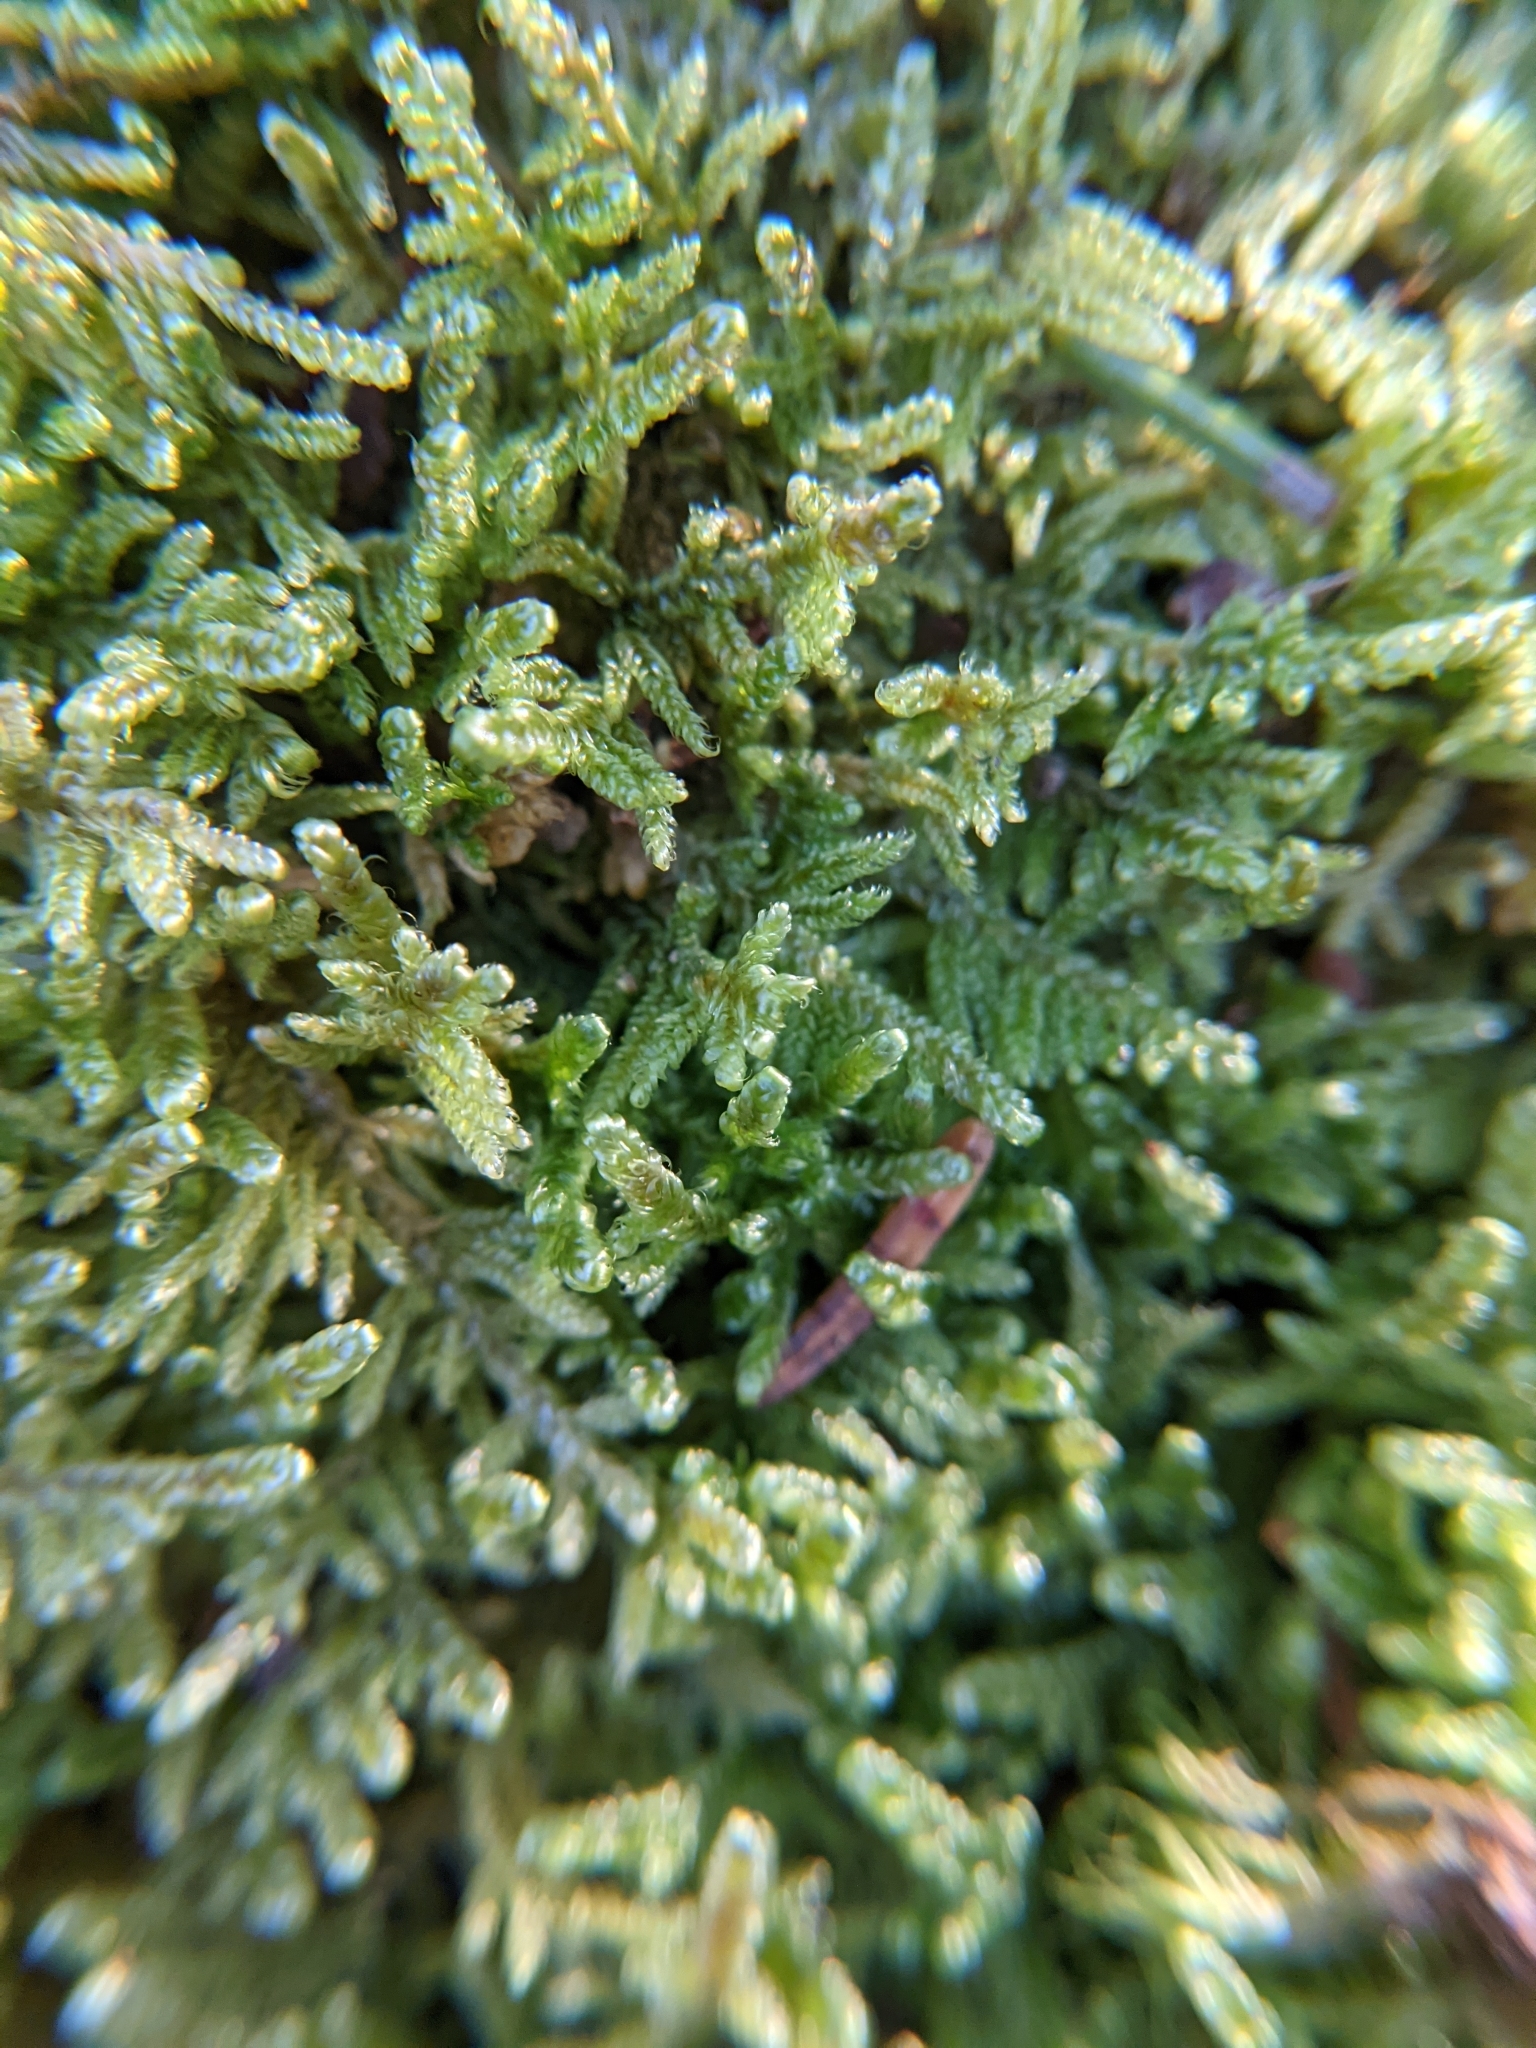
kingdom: Plantae
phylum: Bryophyta
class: Bryopsida
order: Hypnales
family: Callicladiaceae
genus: Callicladium
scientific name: Callicladium imponens
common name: Brocade moss
